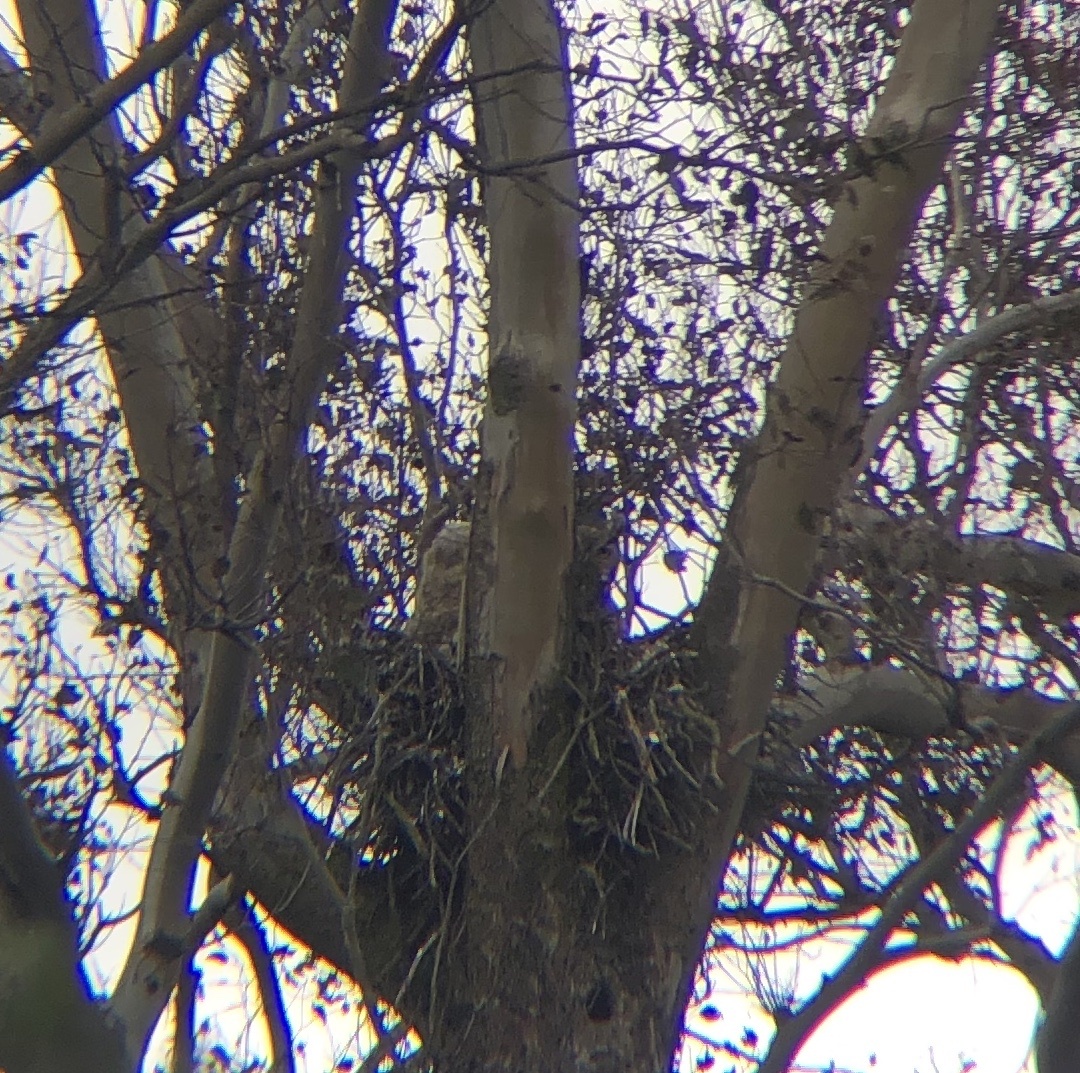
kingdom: Animalia
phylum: Chordata
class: Aves
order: Strigiformes
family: Strigidae
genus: Bubo
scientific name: Bubo virginianus
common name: Great horned owl
